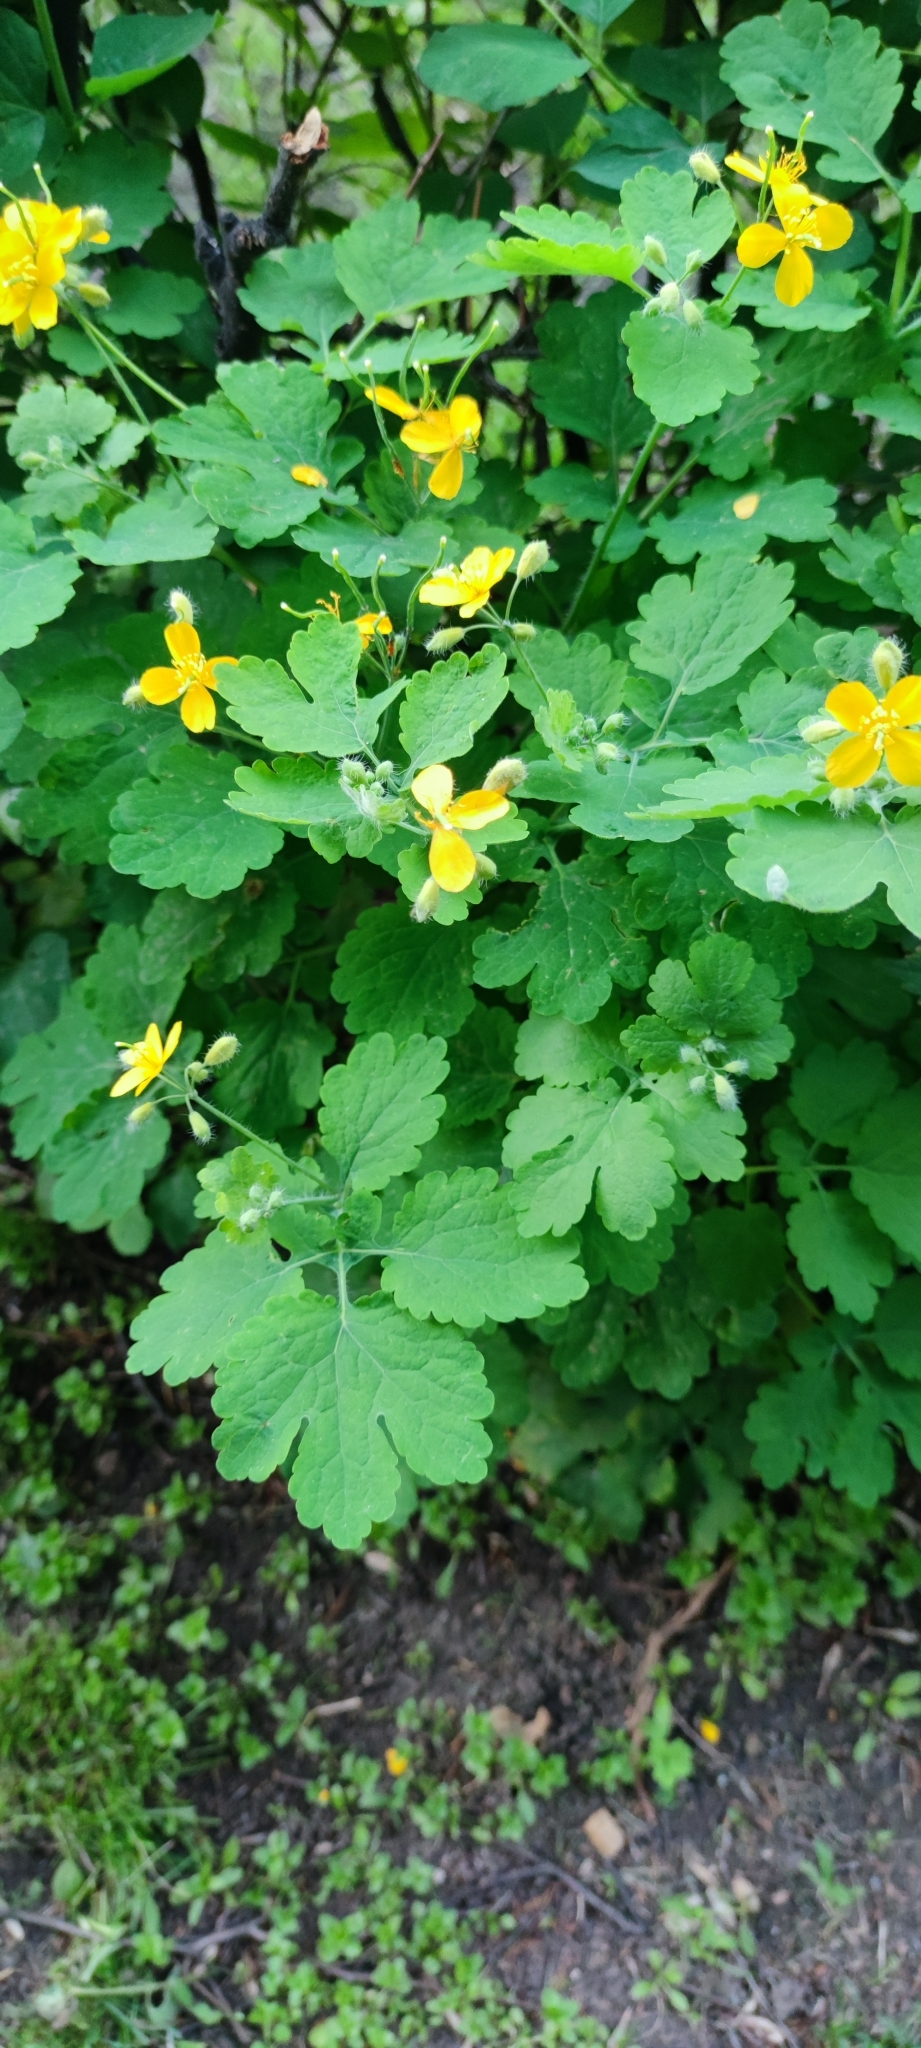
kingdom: Plantae
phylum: Tracheophyta
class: Magnoliopsida
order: Ranunculales
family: Papaveraceae
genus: Chelidonium
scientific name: Chelidonium majus
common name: Greater celandine
